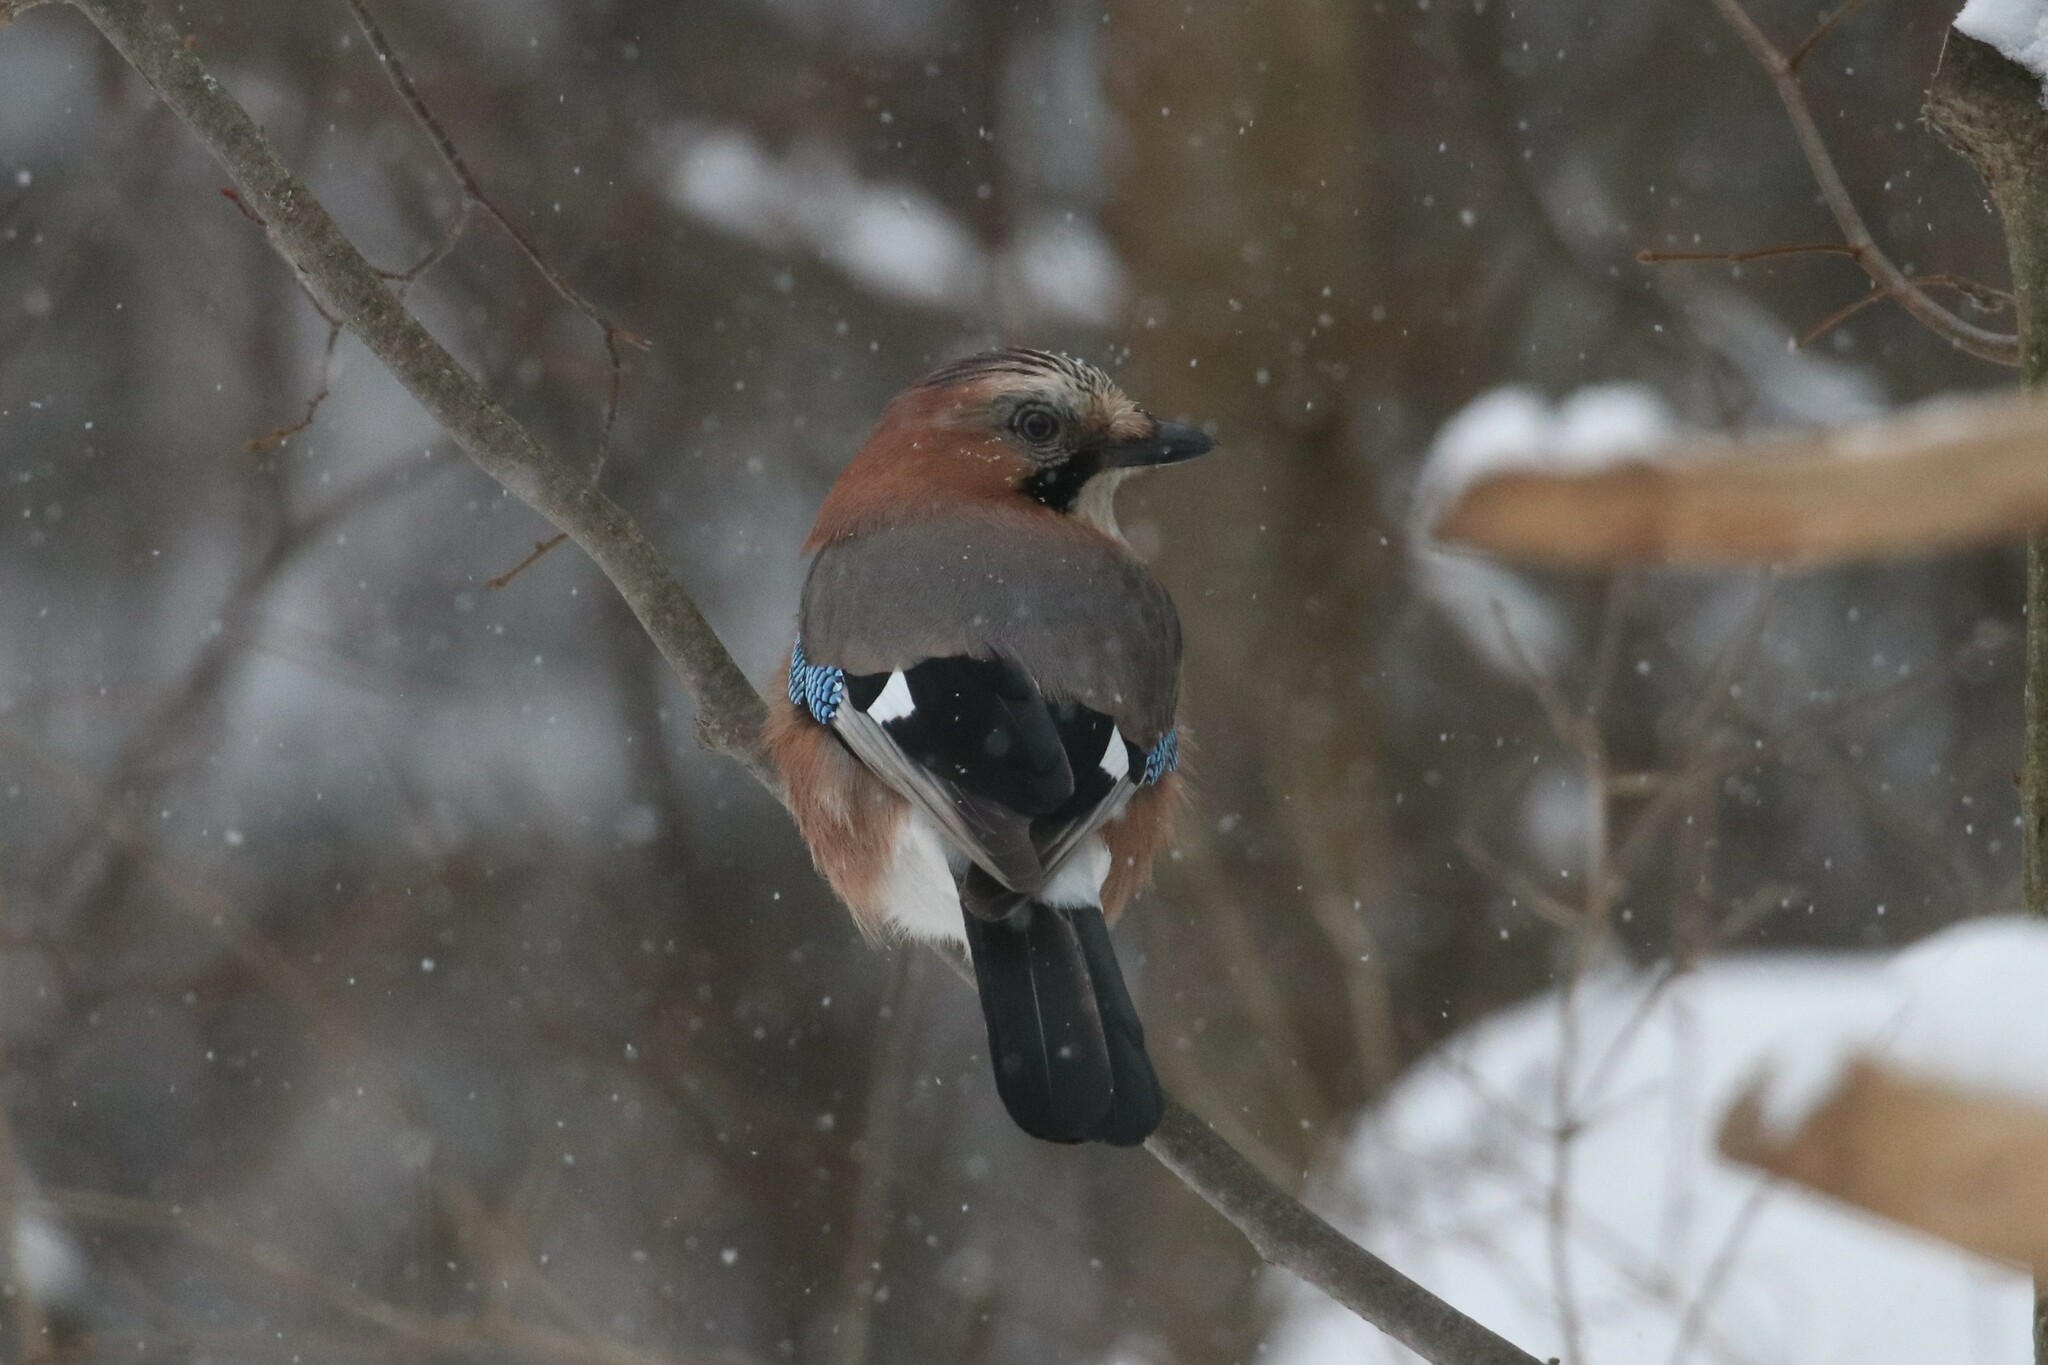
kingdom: Animalia
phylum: Chordata
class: Aves
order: Passeriformes
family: Corvidae
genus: Garrulus
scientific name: Garrulus glandarius
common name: Eurasian jay
